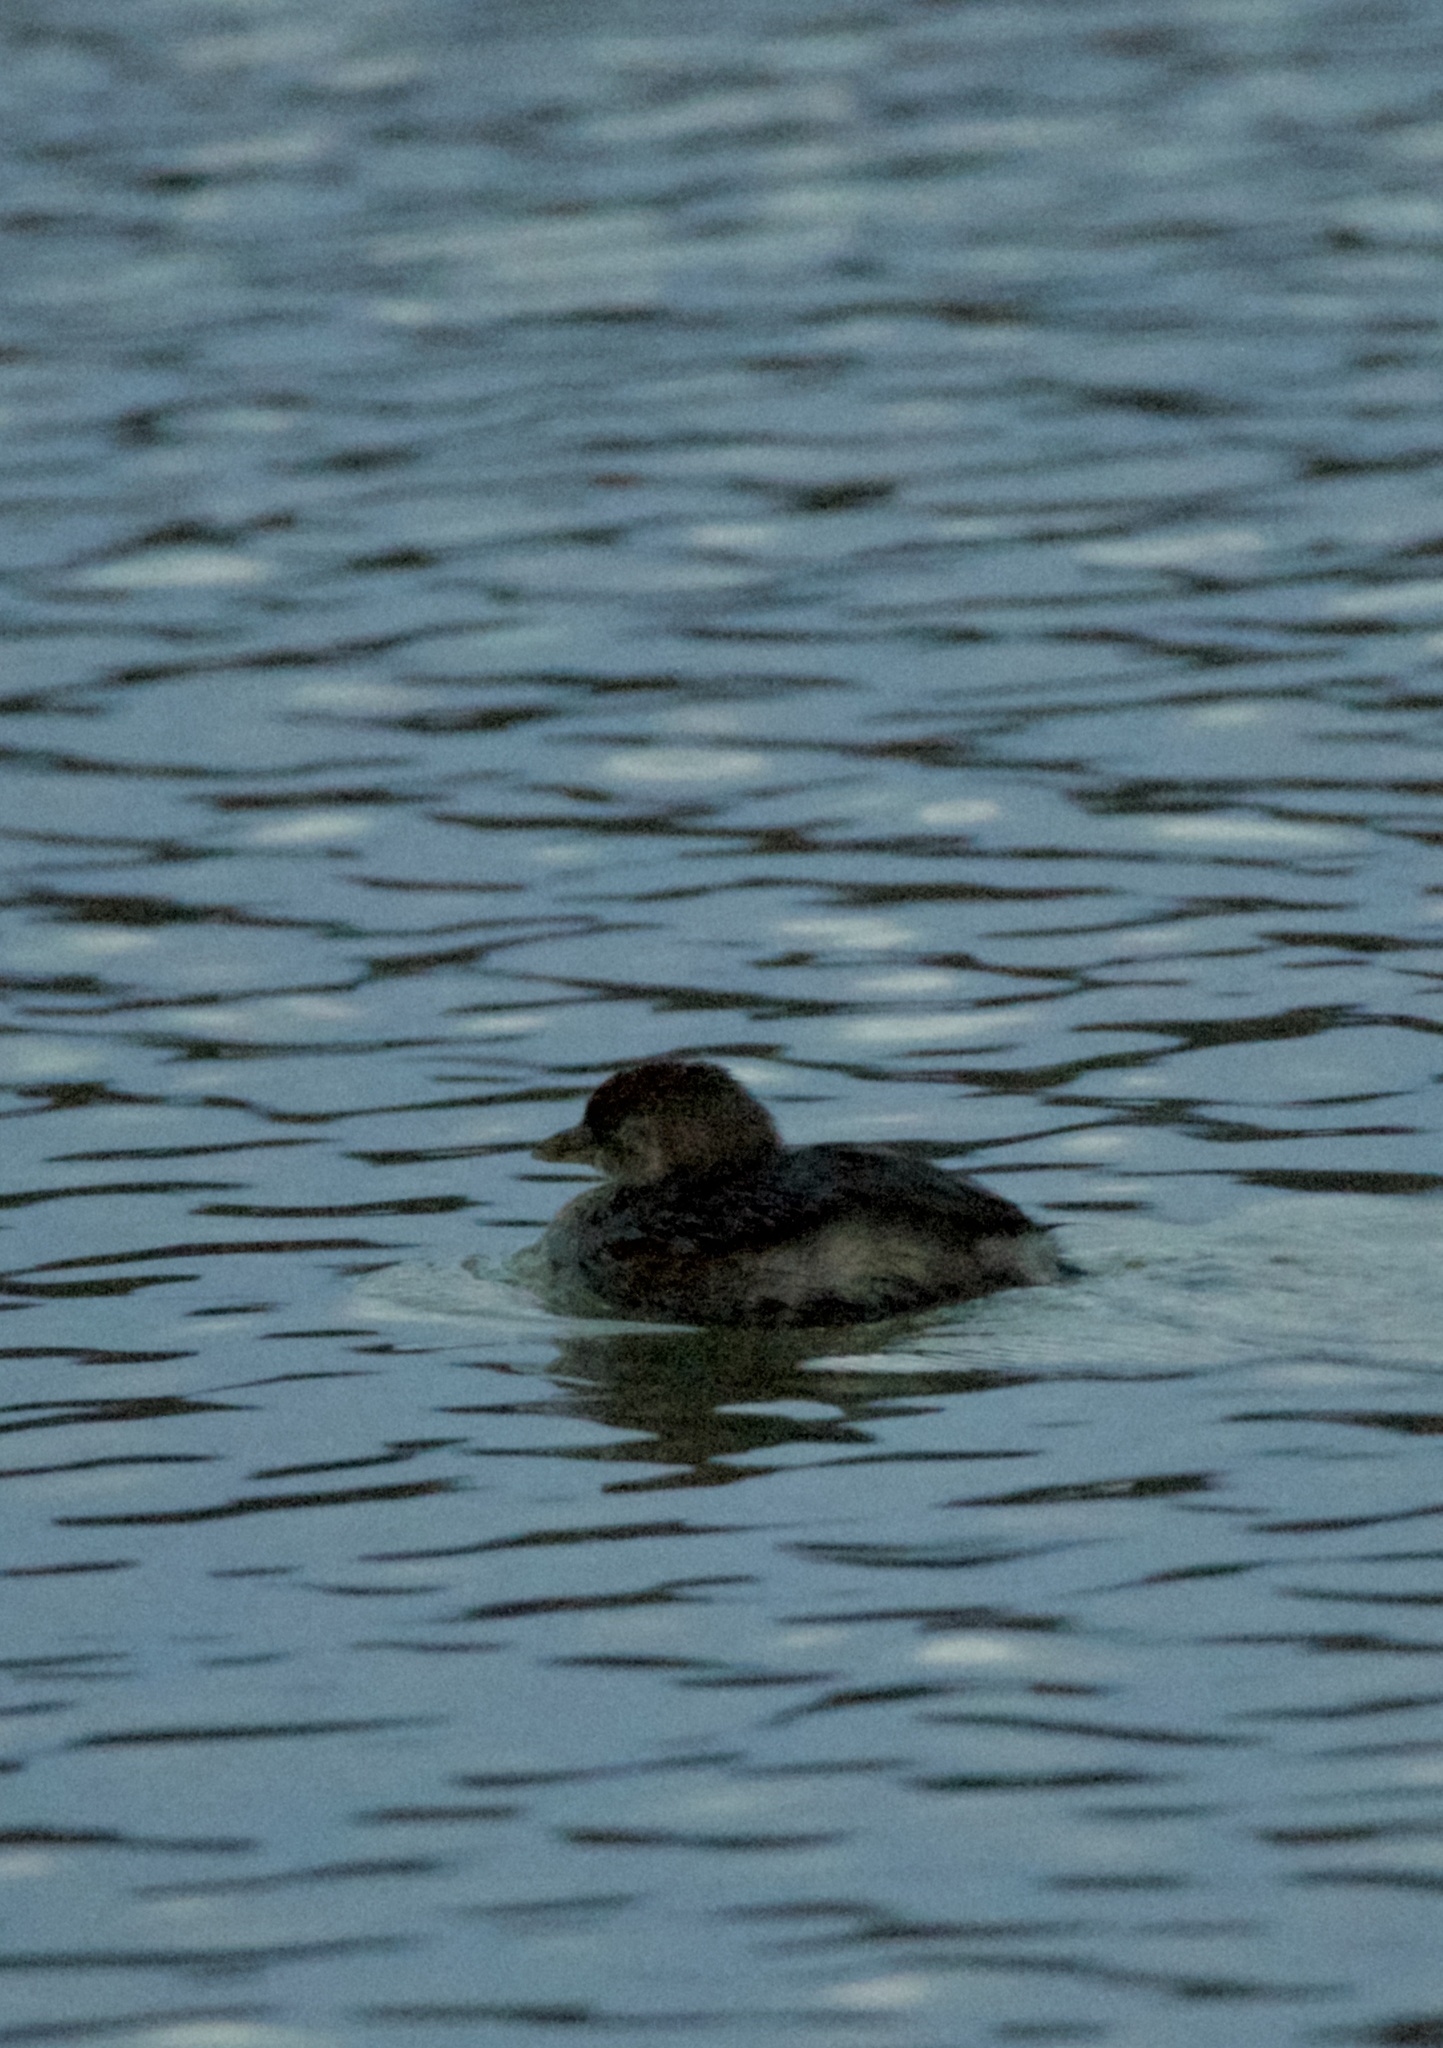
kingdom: Animalia
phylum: Chordata
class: Aves
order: Podicipediformes
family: Podicipedidae
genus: Podilymbus
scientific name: Podilymbus podiceps
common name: Pied-billed grebe
